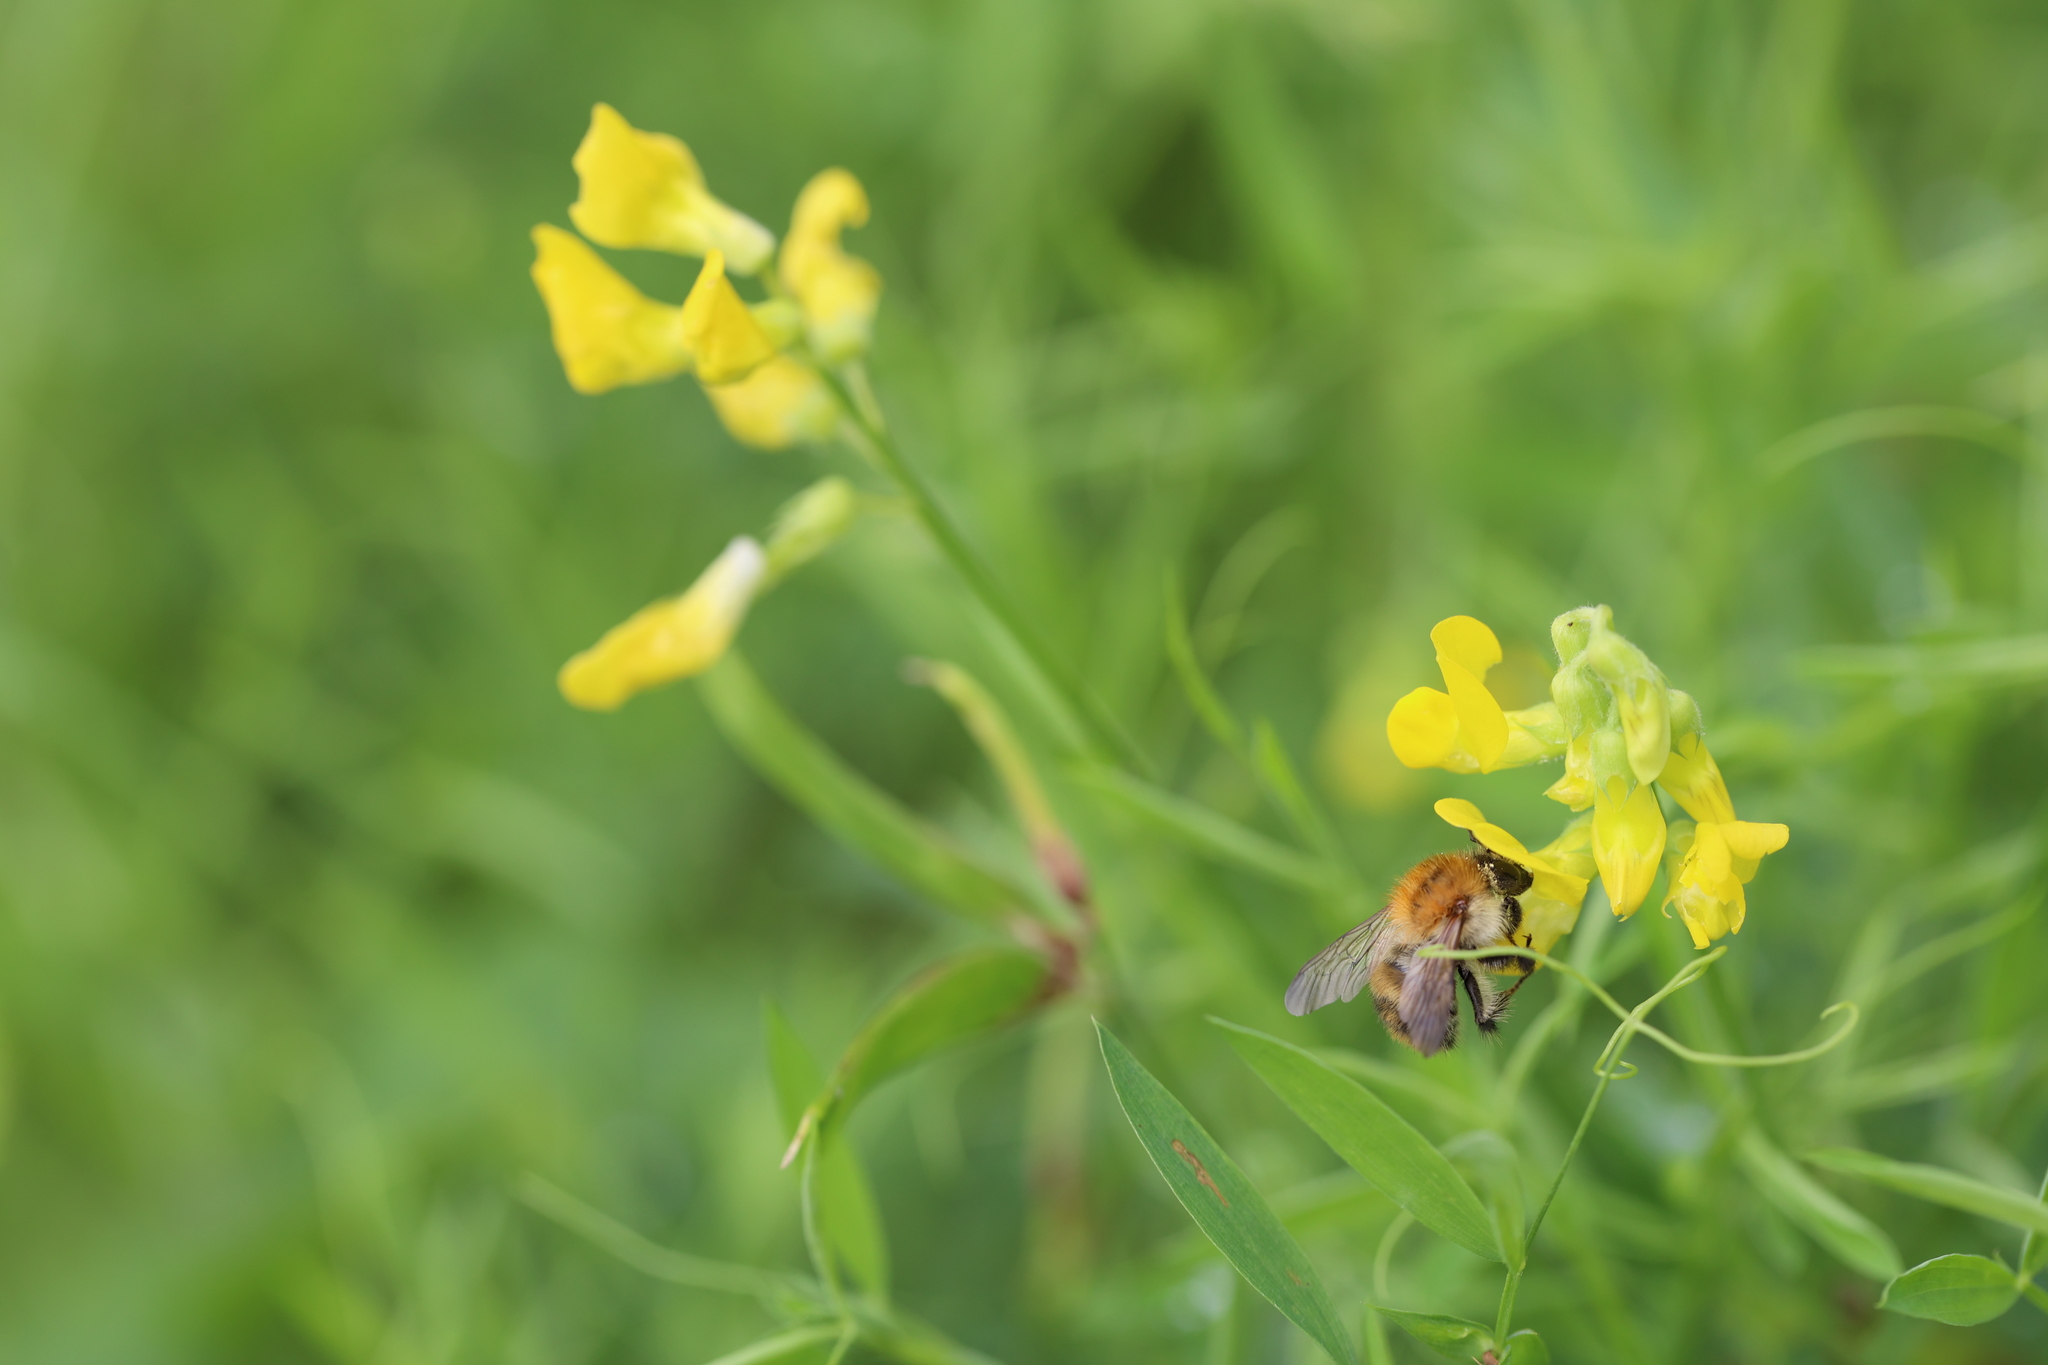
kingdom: Plantae
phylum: Tracheophyta
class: Magnoliopsida
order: Fabales
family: Fabaceae
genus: Lathyrus
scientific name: Lathyrus pratensis
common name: Meadow vetchling
